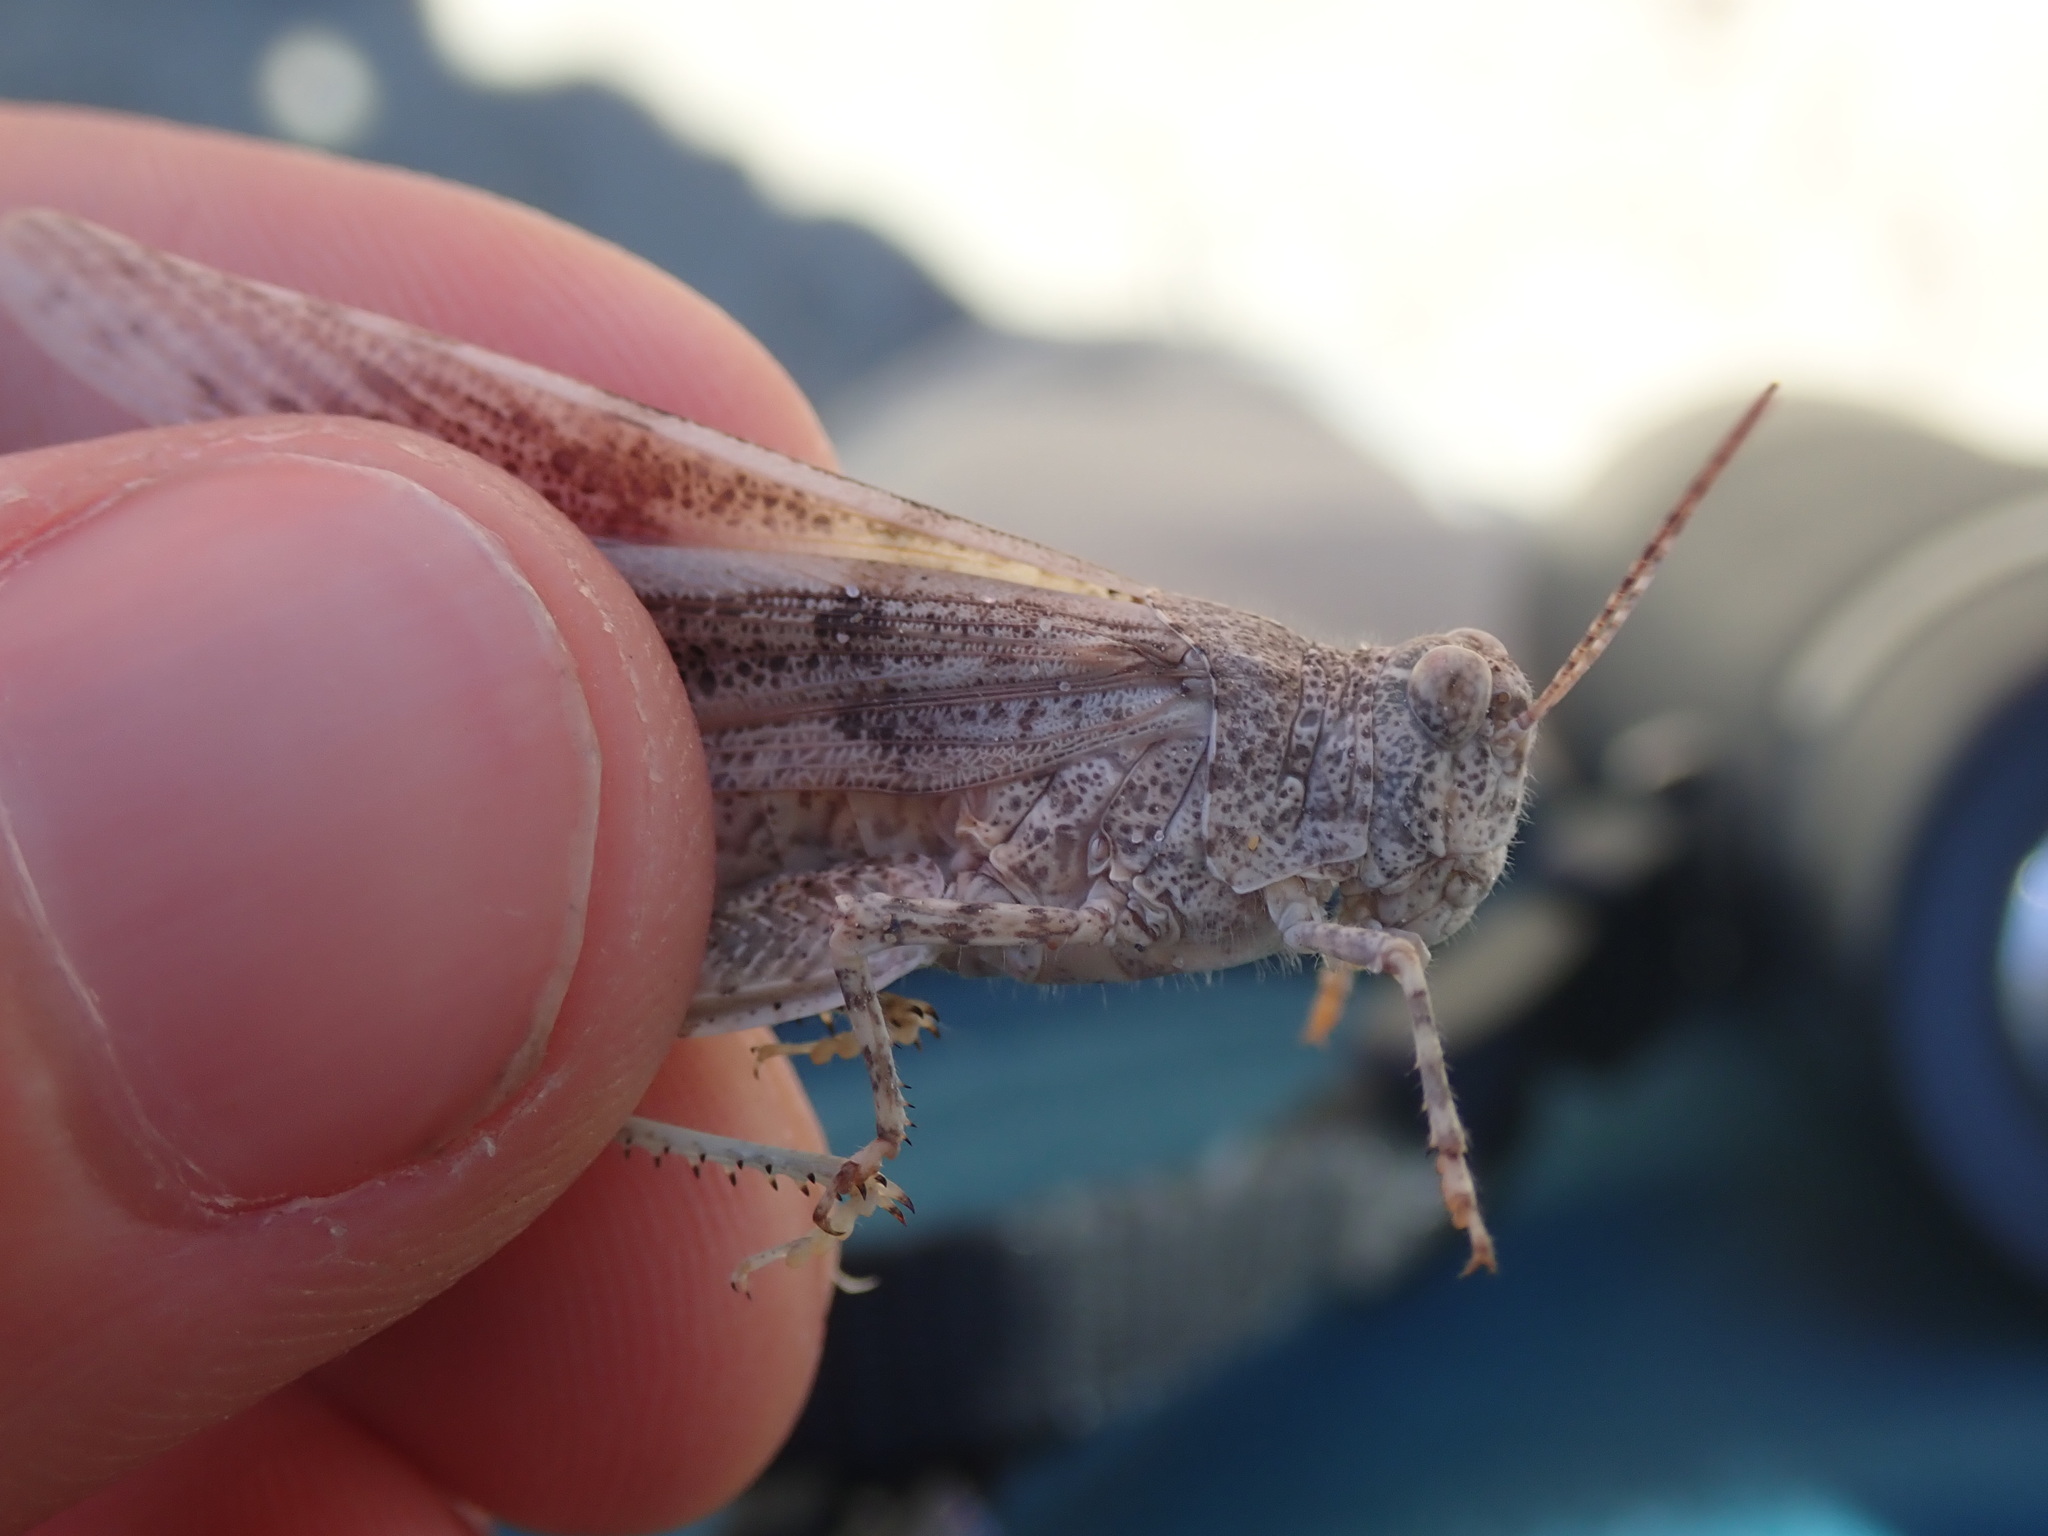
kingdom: Animalia
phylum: Arthropoda
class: Insecta
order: Orthoptera
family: Acrididae
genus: Sphingonotus
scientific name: Sphingonotus caerulans
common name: Blue-winged locust
